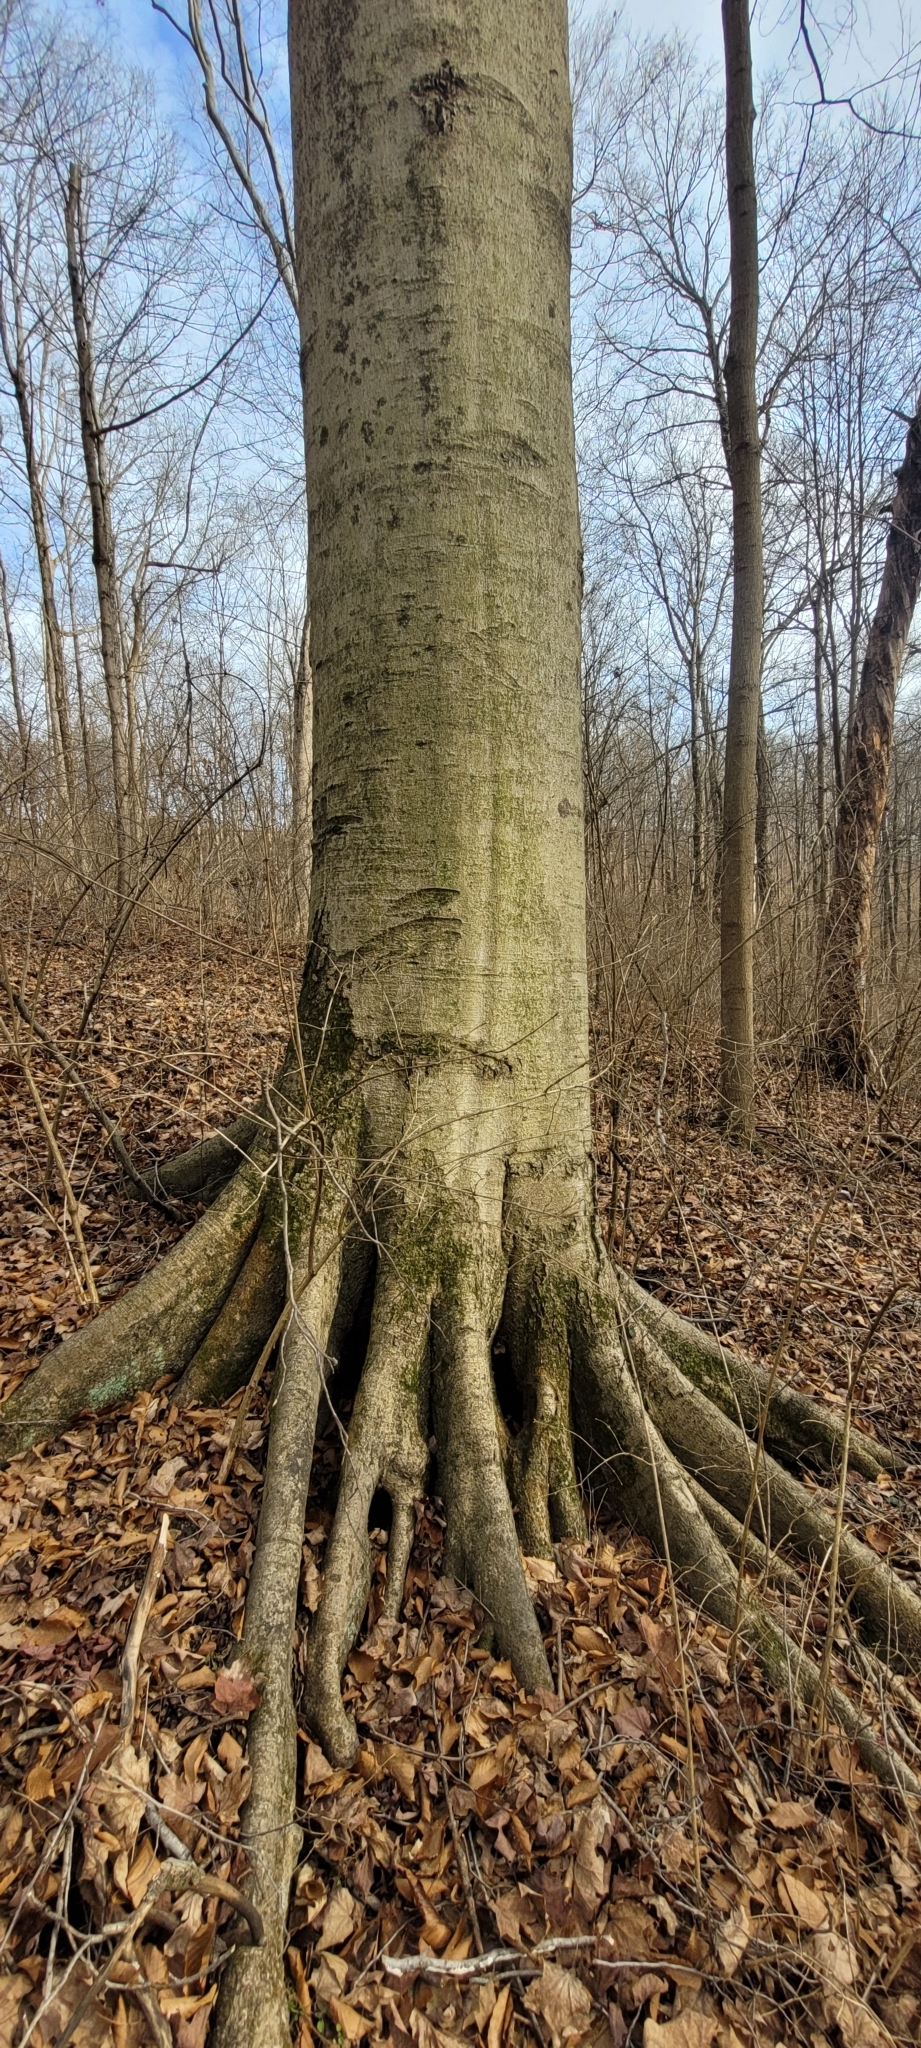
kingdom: Plantae
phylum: Tracheophyta
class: Magnoliopsida
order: Fagales
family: Fagaceae
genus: Fagus
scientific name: Fagus grandifolia
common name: American beech
